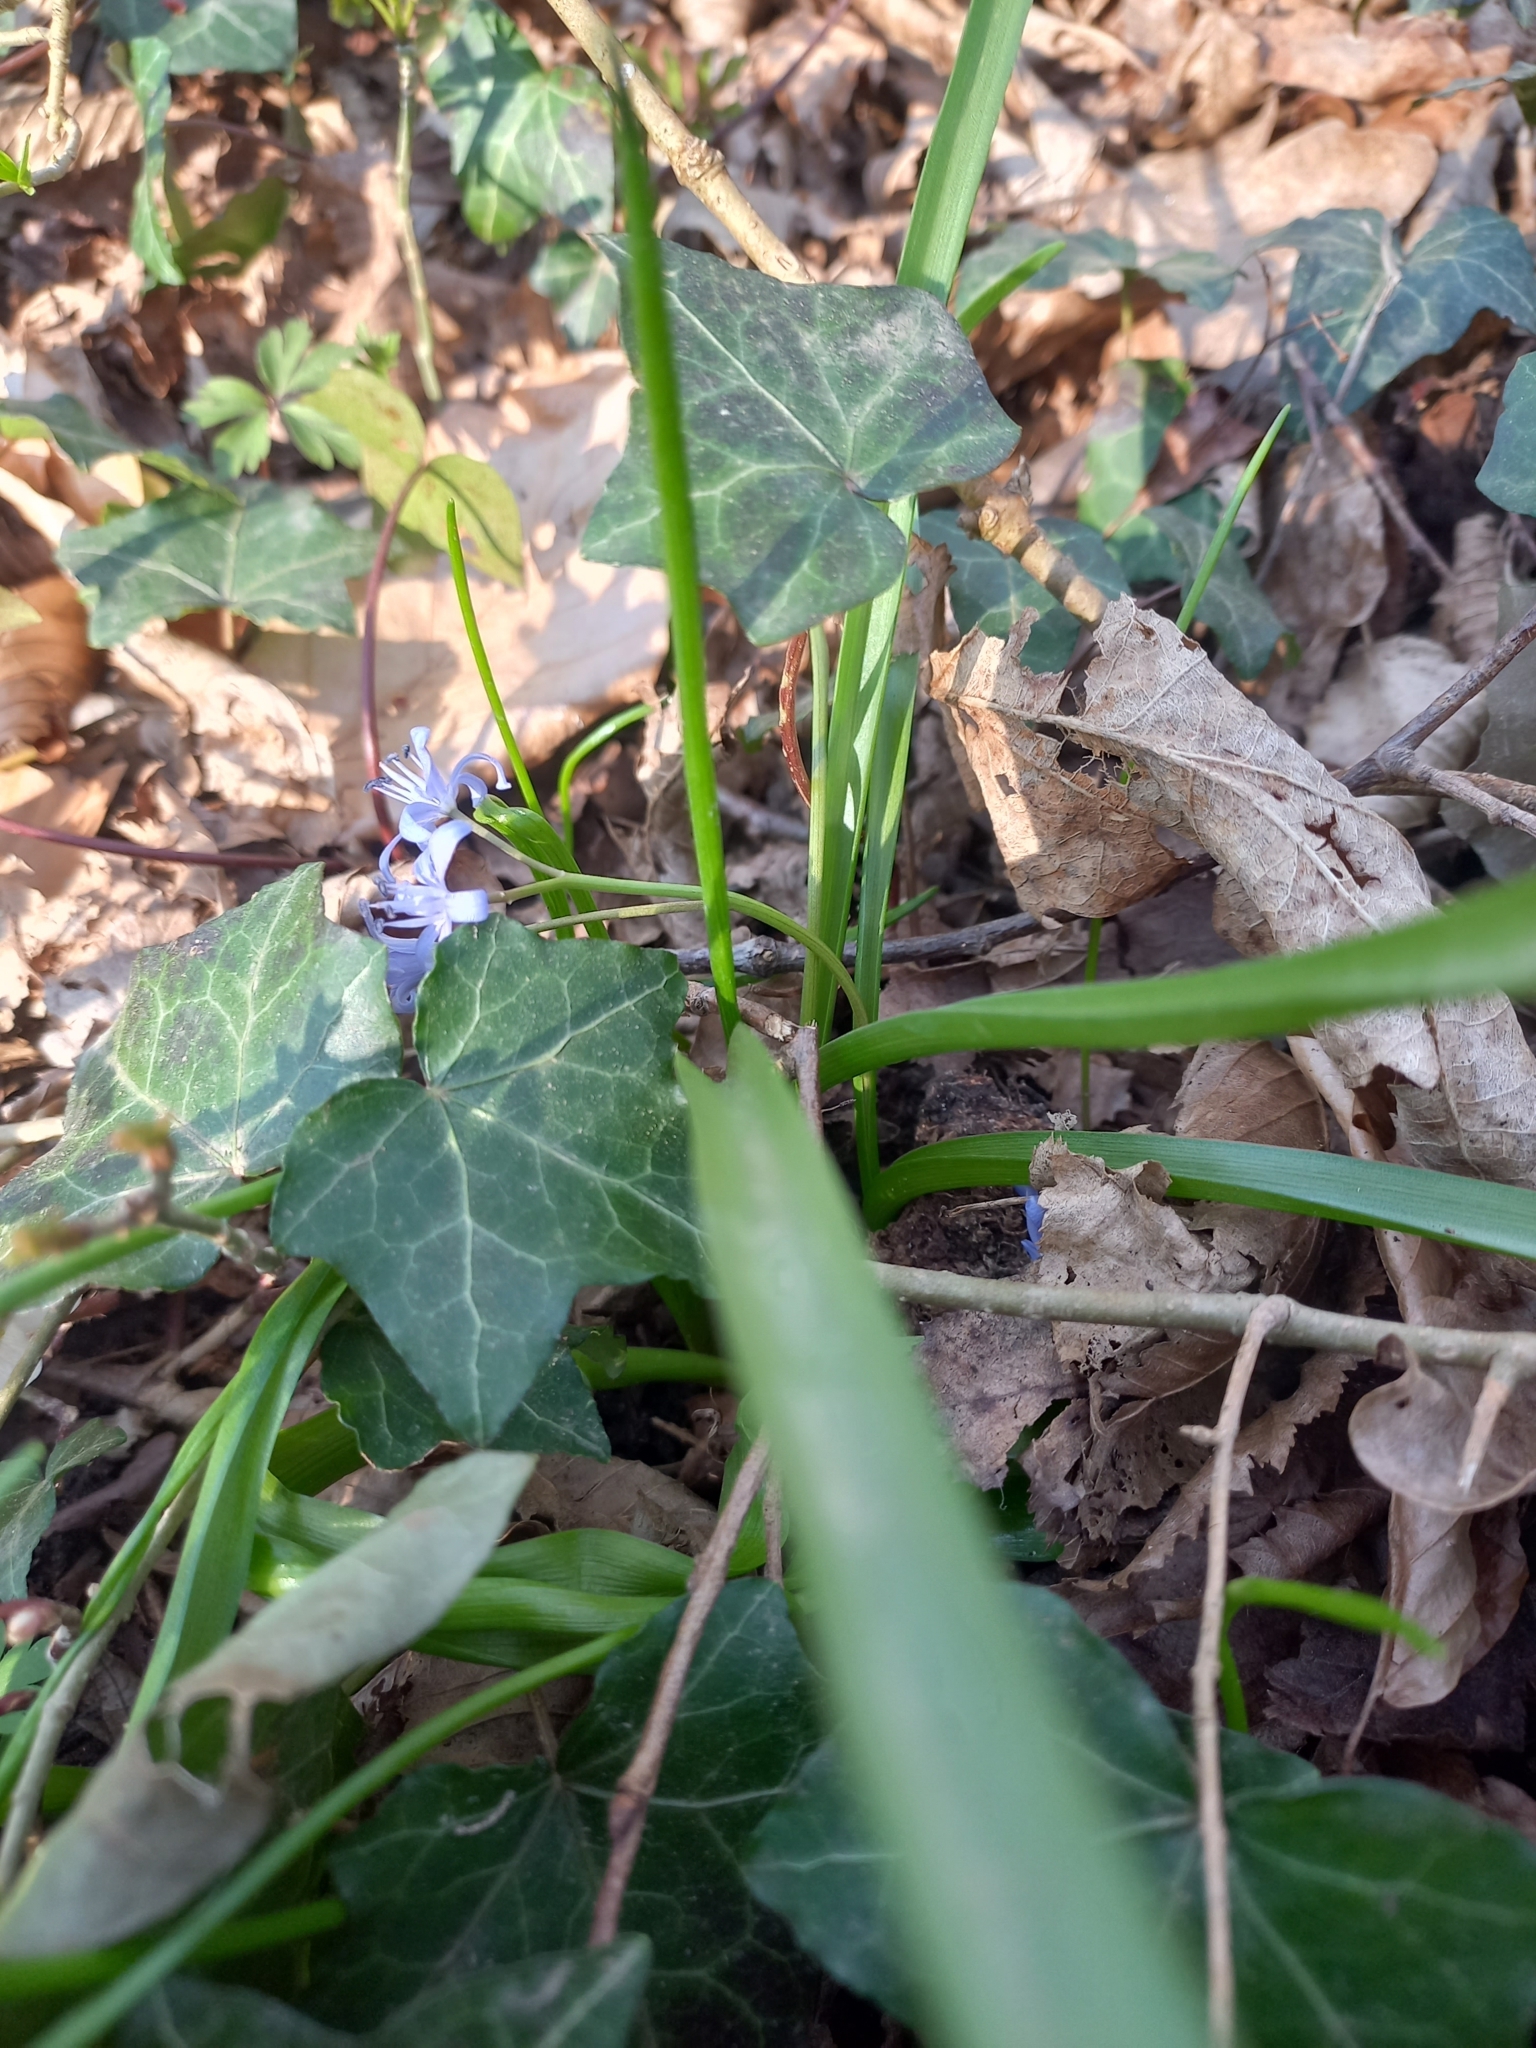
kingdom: Plantae
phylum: Tracheophyta
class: Liliopsida
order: Asparagales
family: Asparagaceae
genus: Scilla
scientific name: Scilla bifolia
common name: Alpine squill
